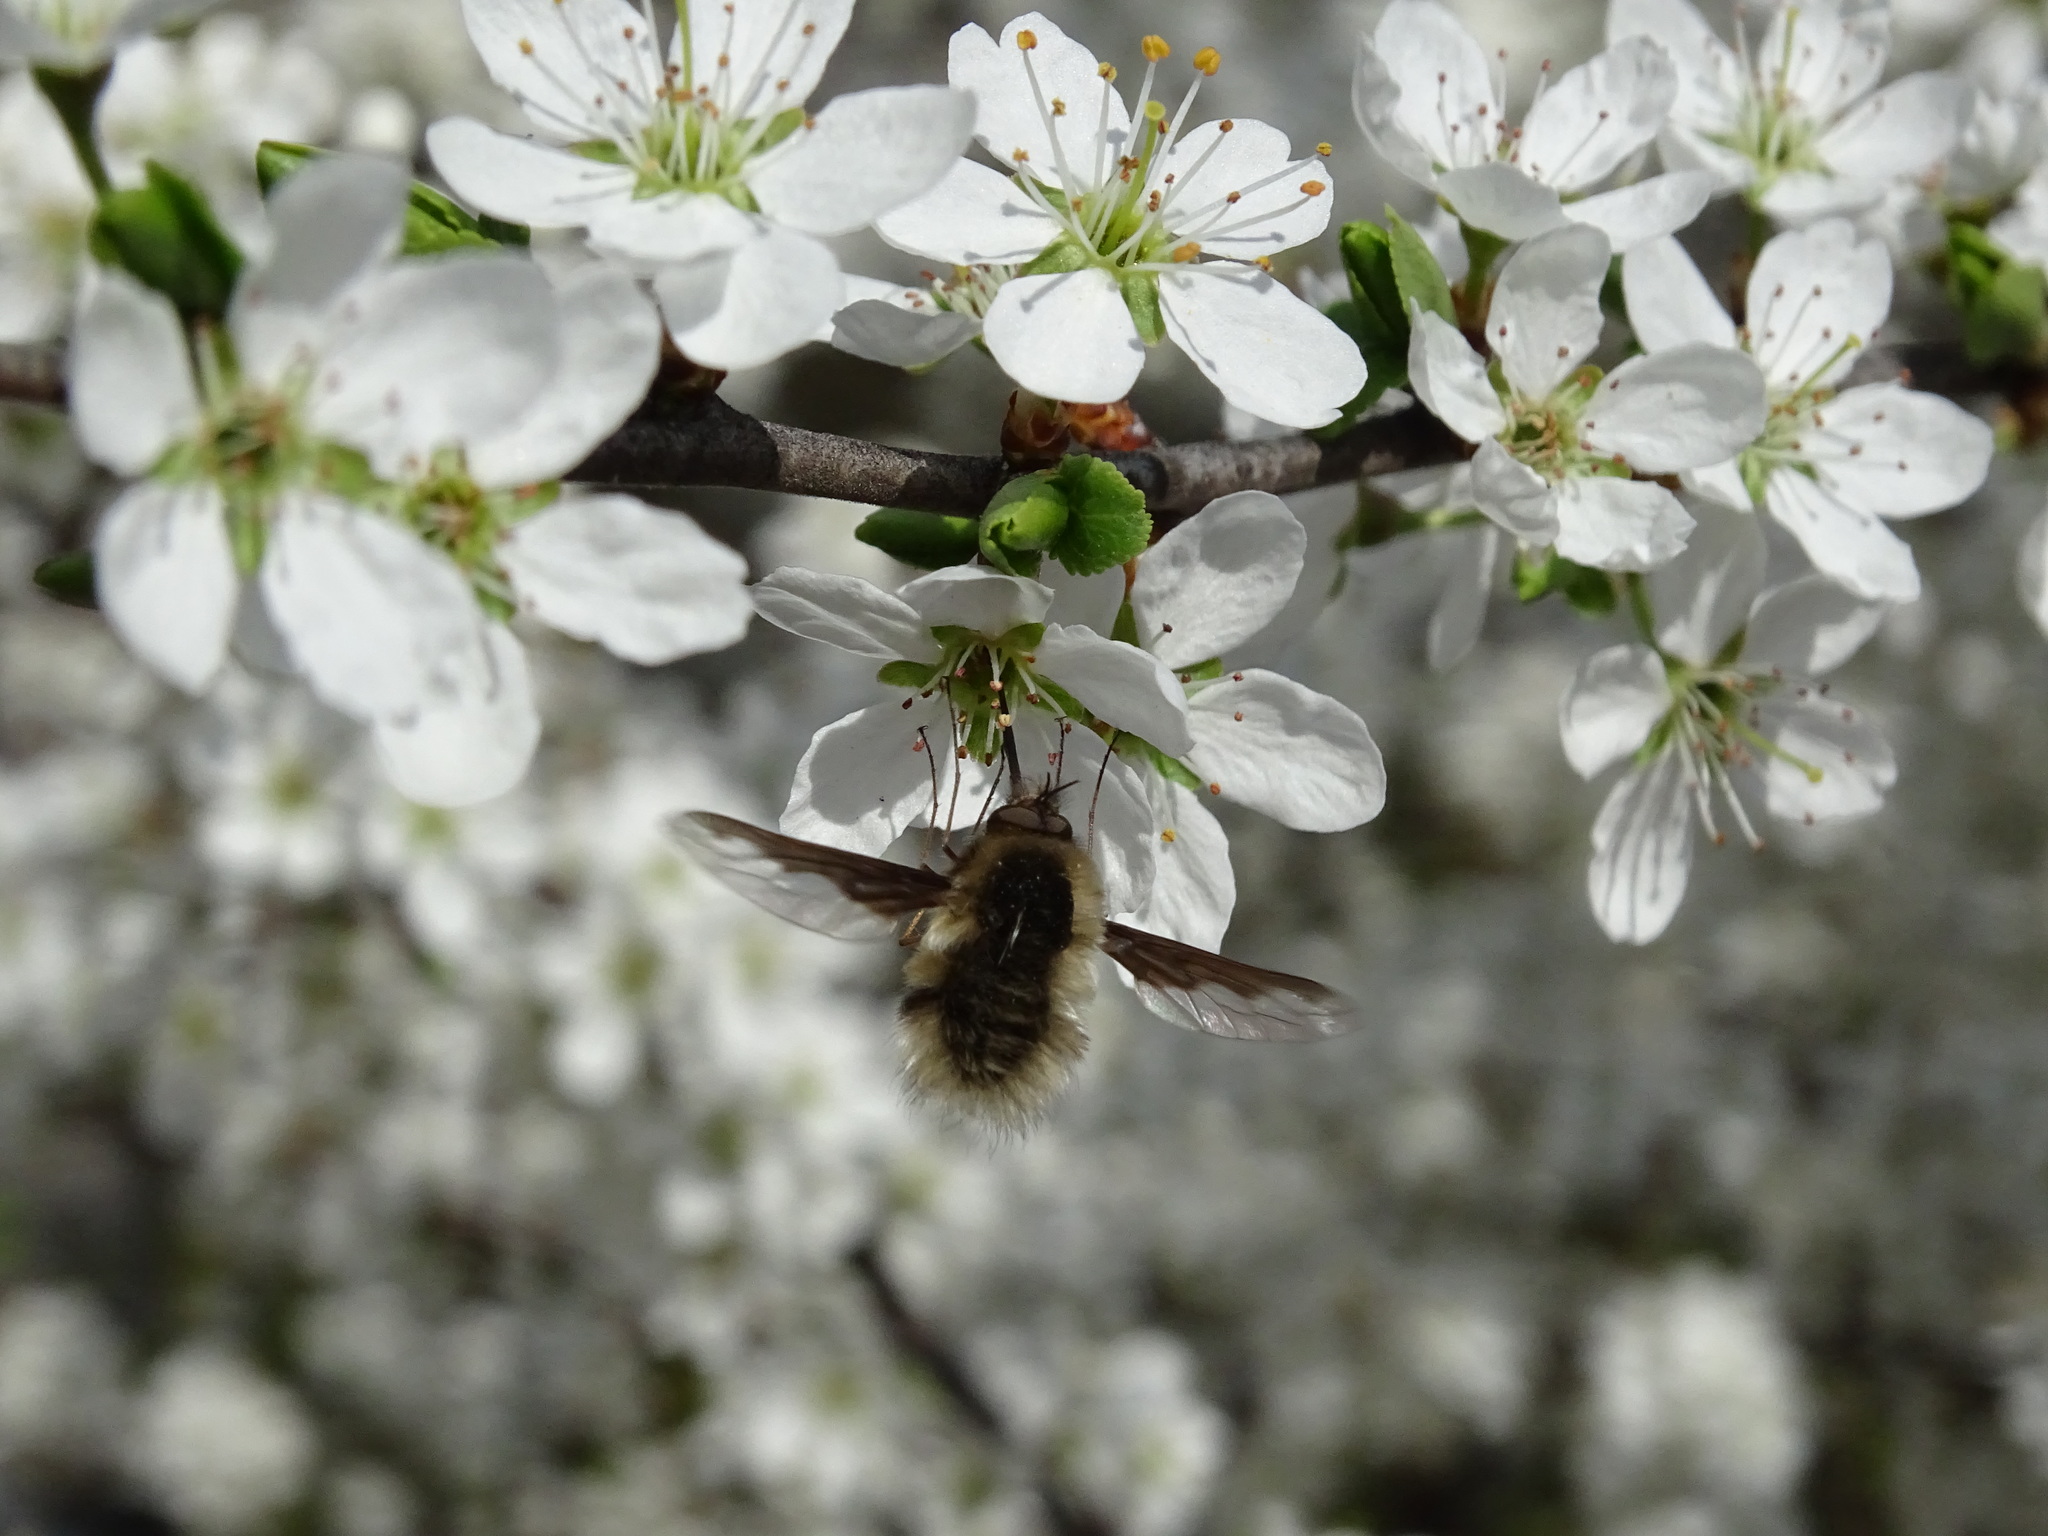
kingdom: Animalia
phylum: Arthropoda
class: Insecta
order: Diptera
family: Bombyliidae
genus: Bombylius
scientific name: Bombylius major
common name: Bee fly
